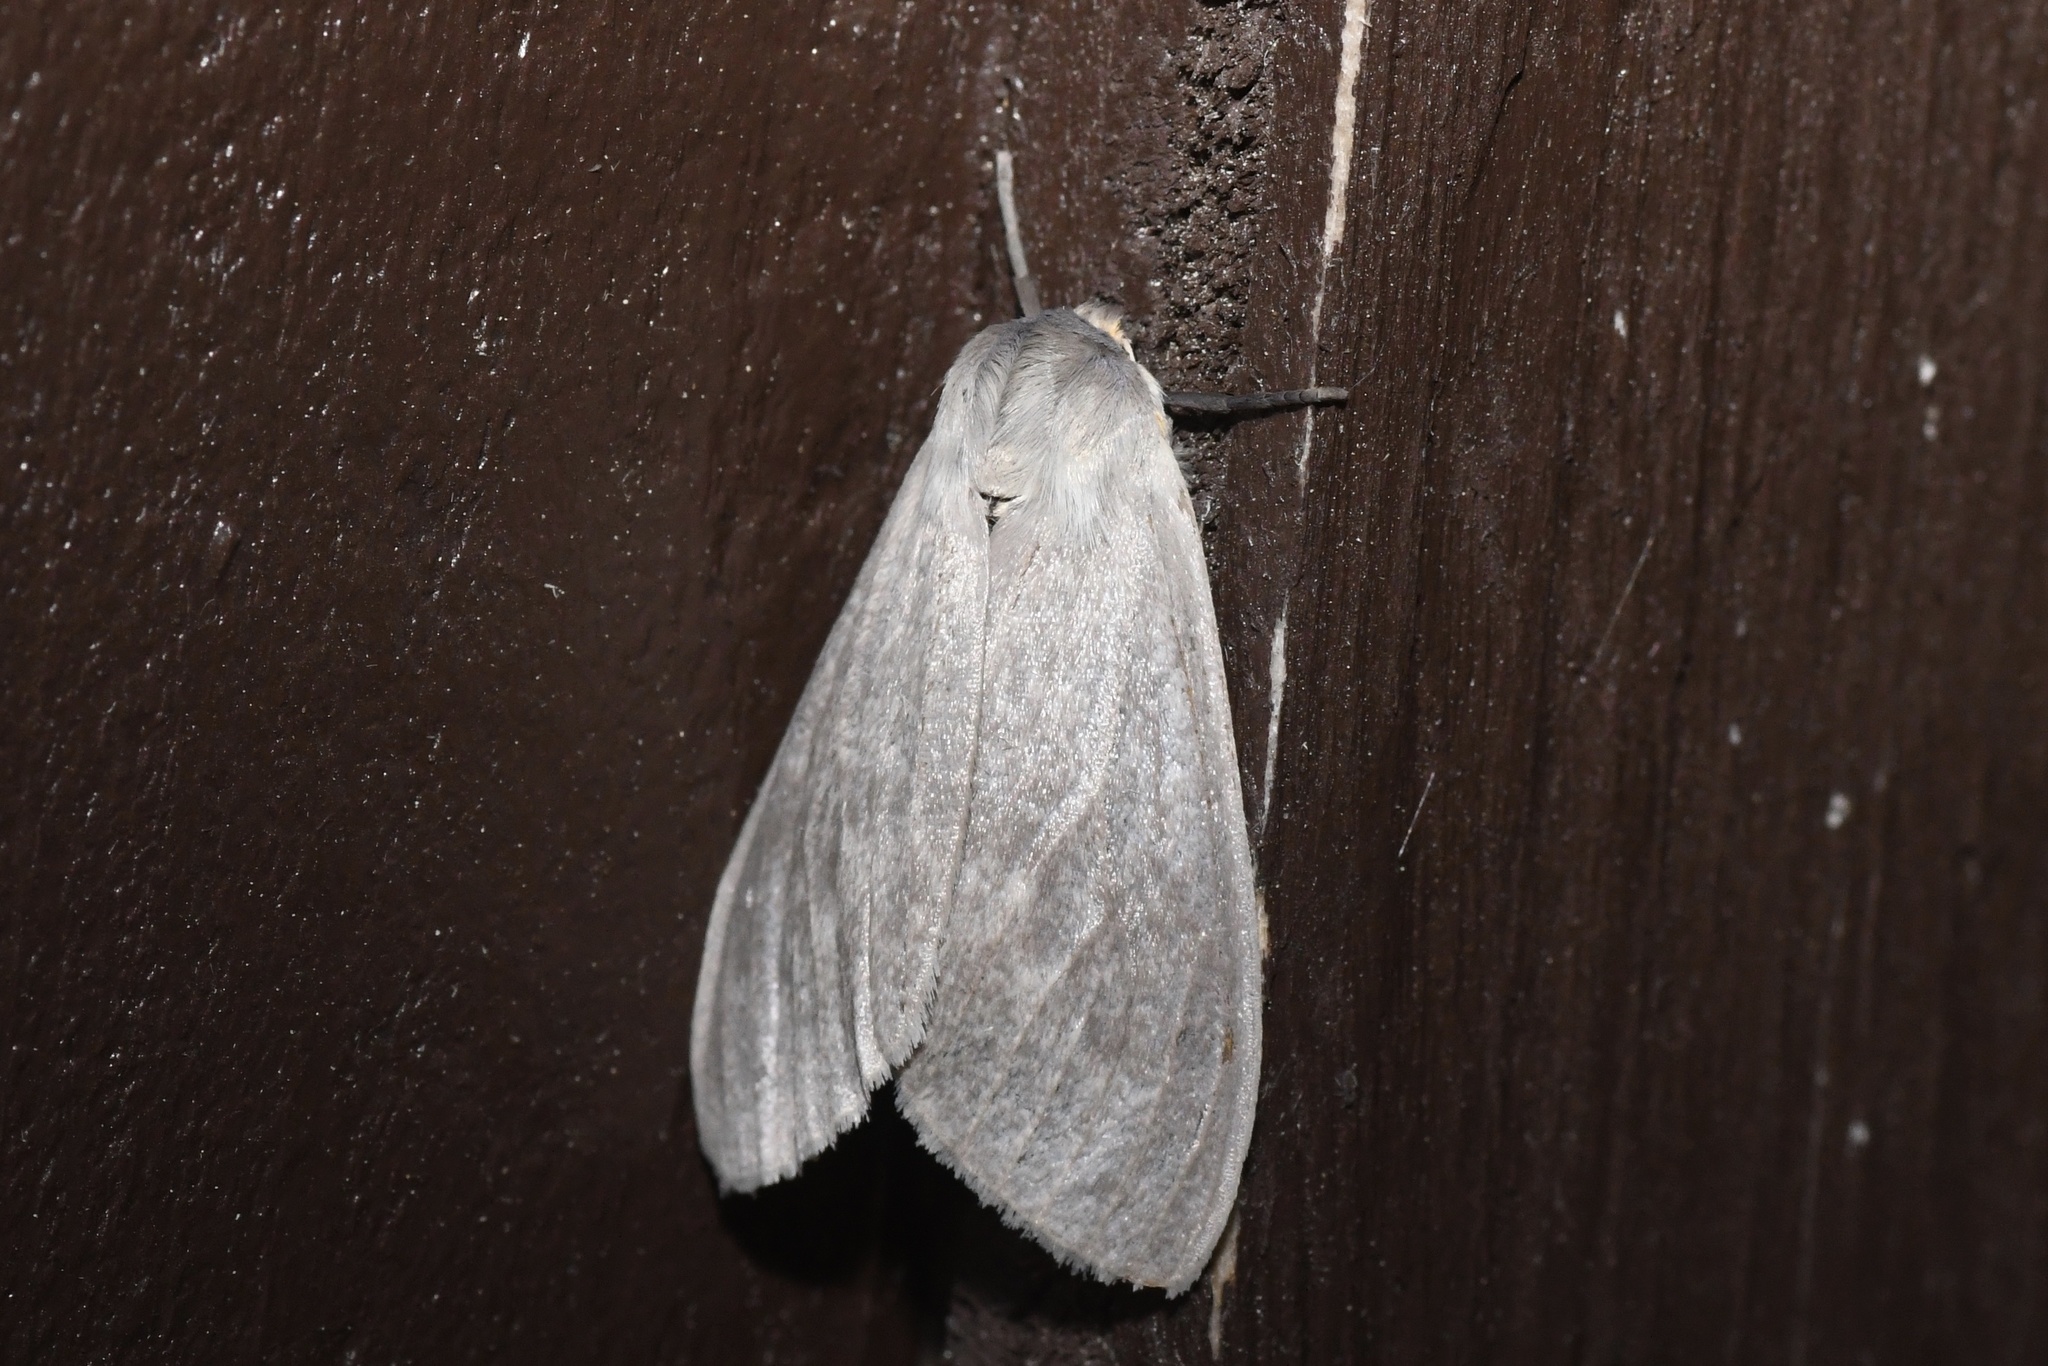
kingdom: Animalia
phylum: Arthropoda
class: Insecta
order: Lepidoptera
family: Erebidae
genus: Euchaetes
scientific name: Euchaetes egle
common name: Milkweed tussock moth
